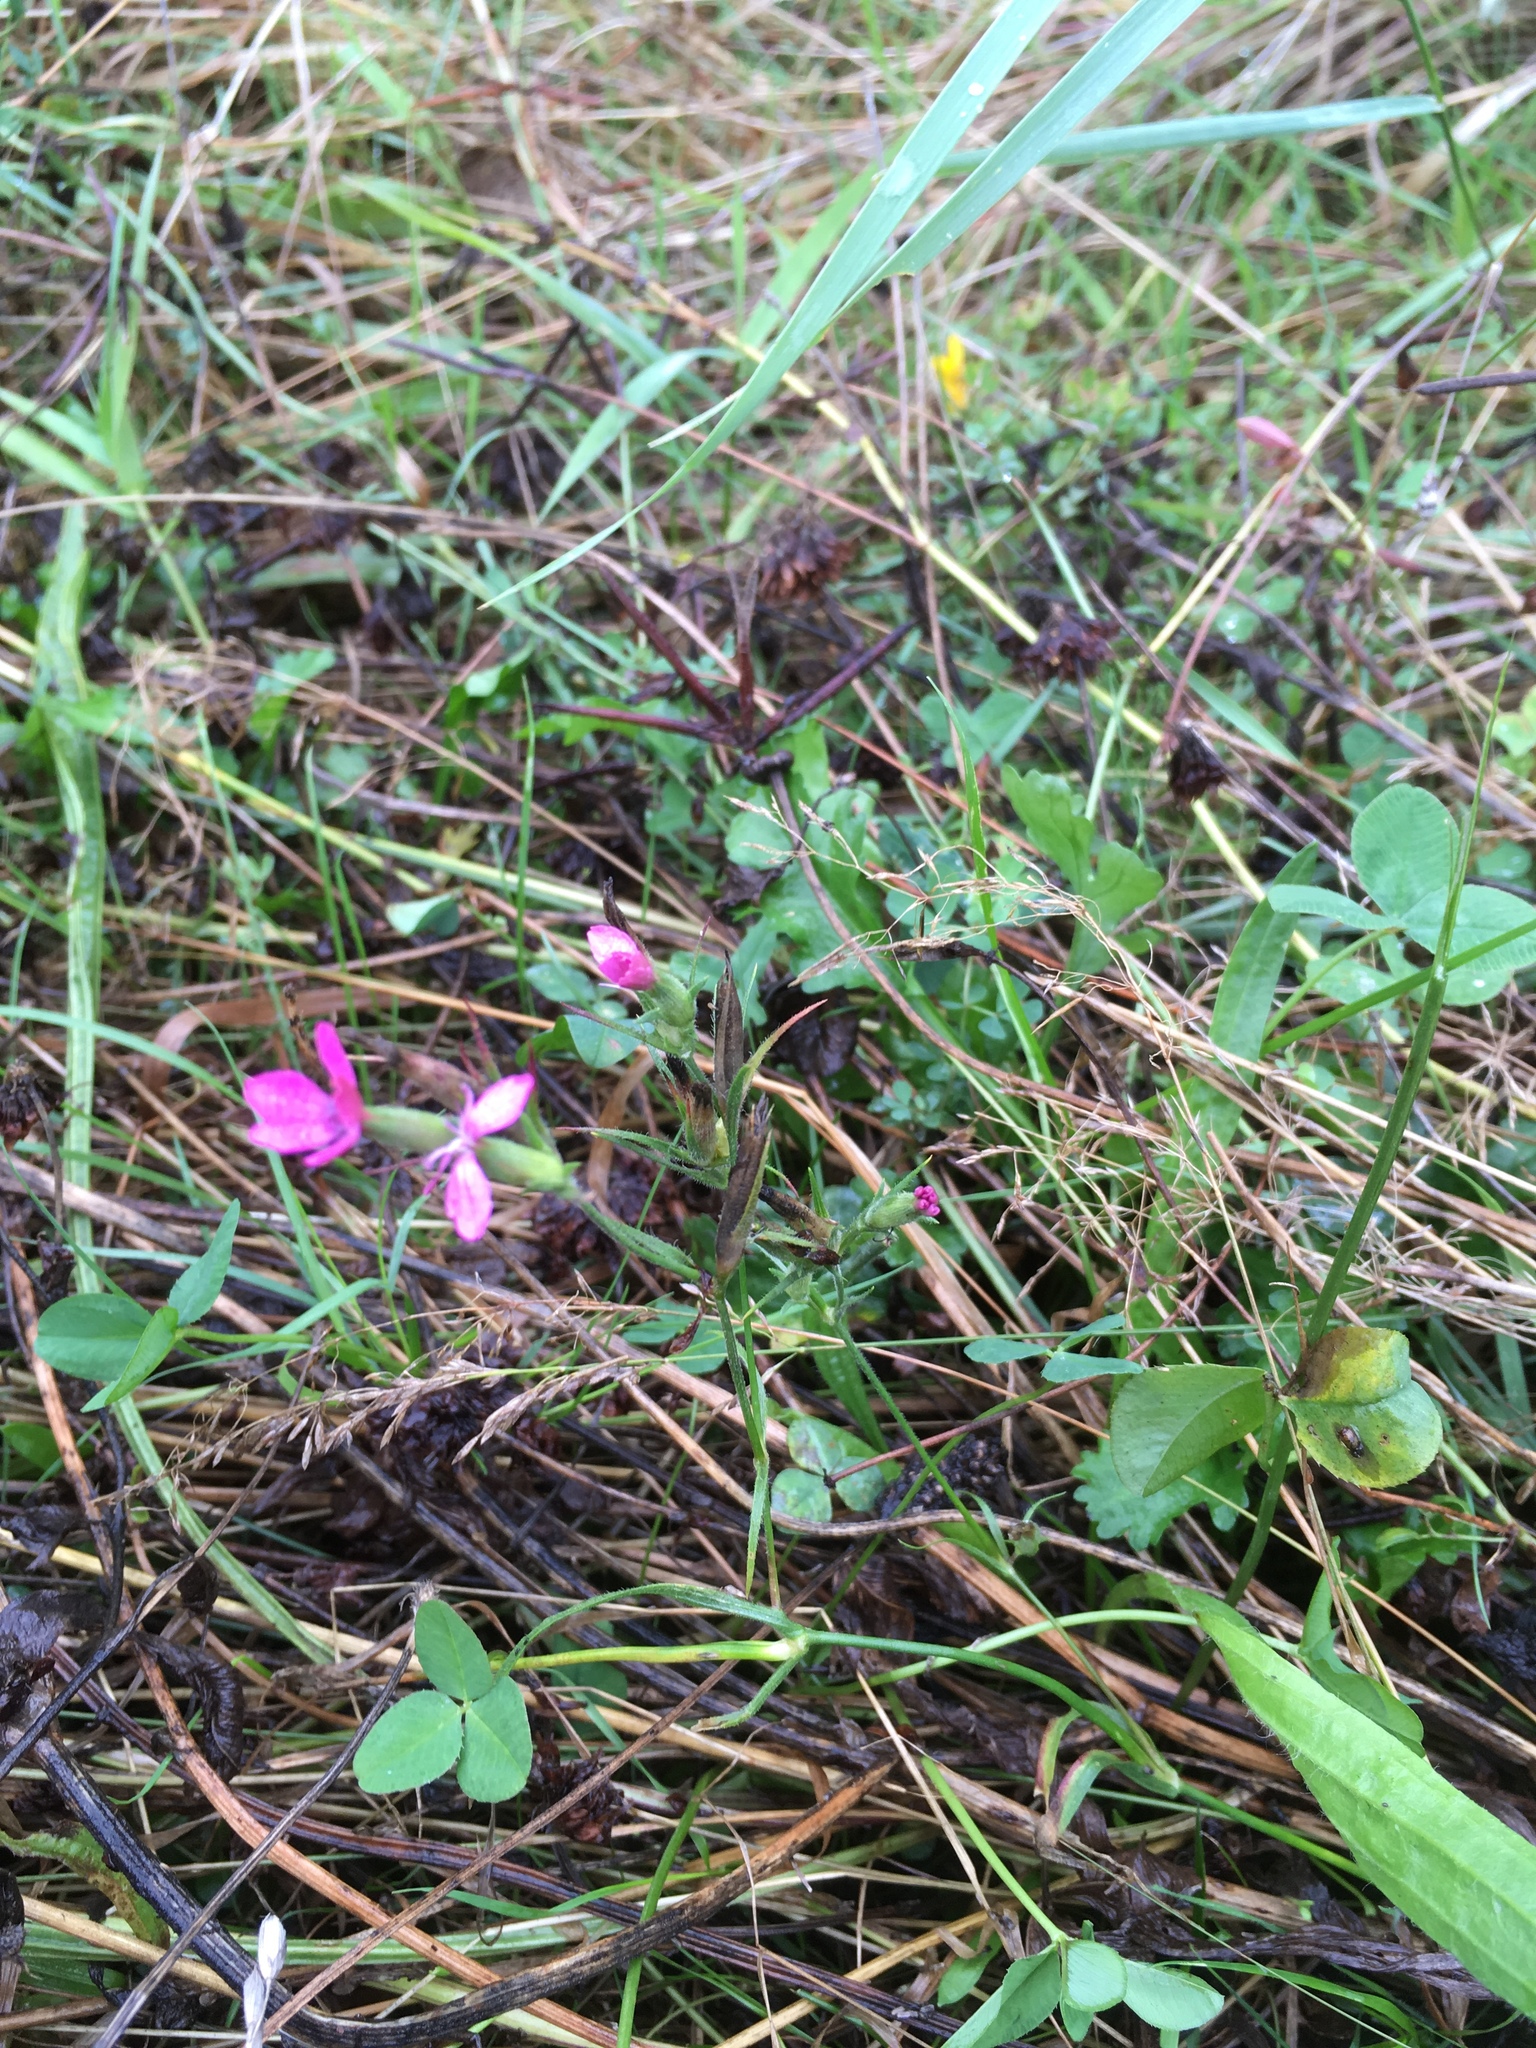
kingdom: Plantae
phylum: Tracheophyta
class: Magnoliopsida
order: Caryophyllales
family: Caryophyllaceae
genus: Dianthus
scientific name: Dianthus armeria
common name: Deptford pink
